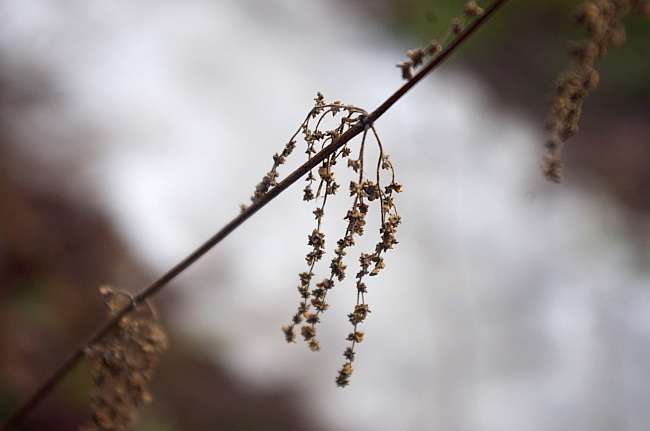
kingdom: Plantae
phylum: Tracheophyta
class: Magnoliopsida
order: Rosales
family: Urticaceae
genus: Urtica
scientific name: Urtica dioica
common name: Common nettle
